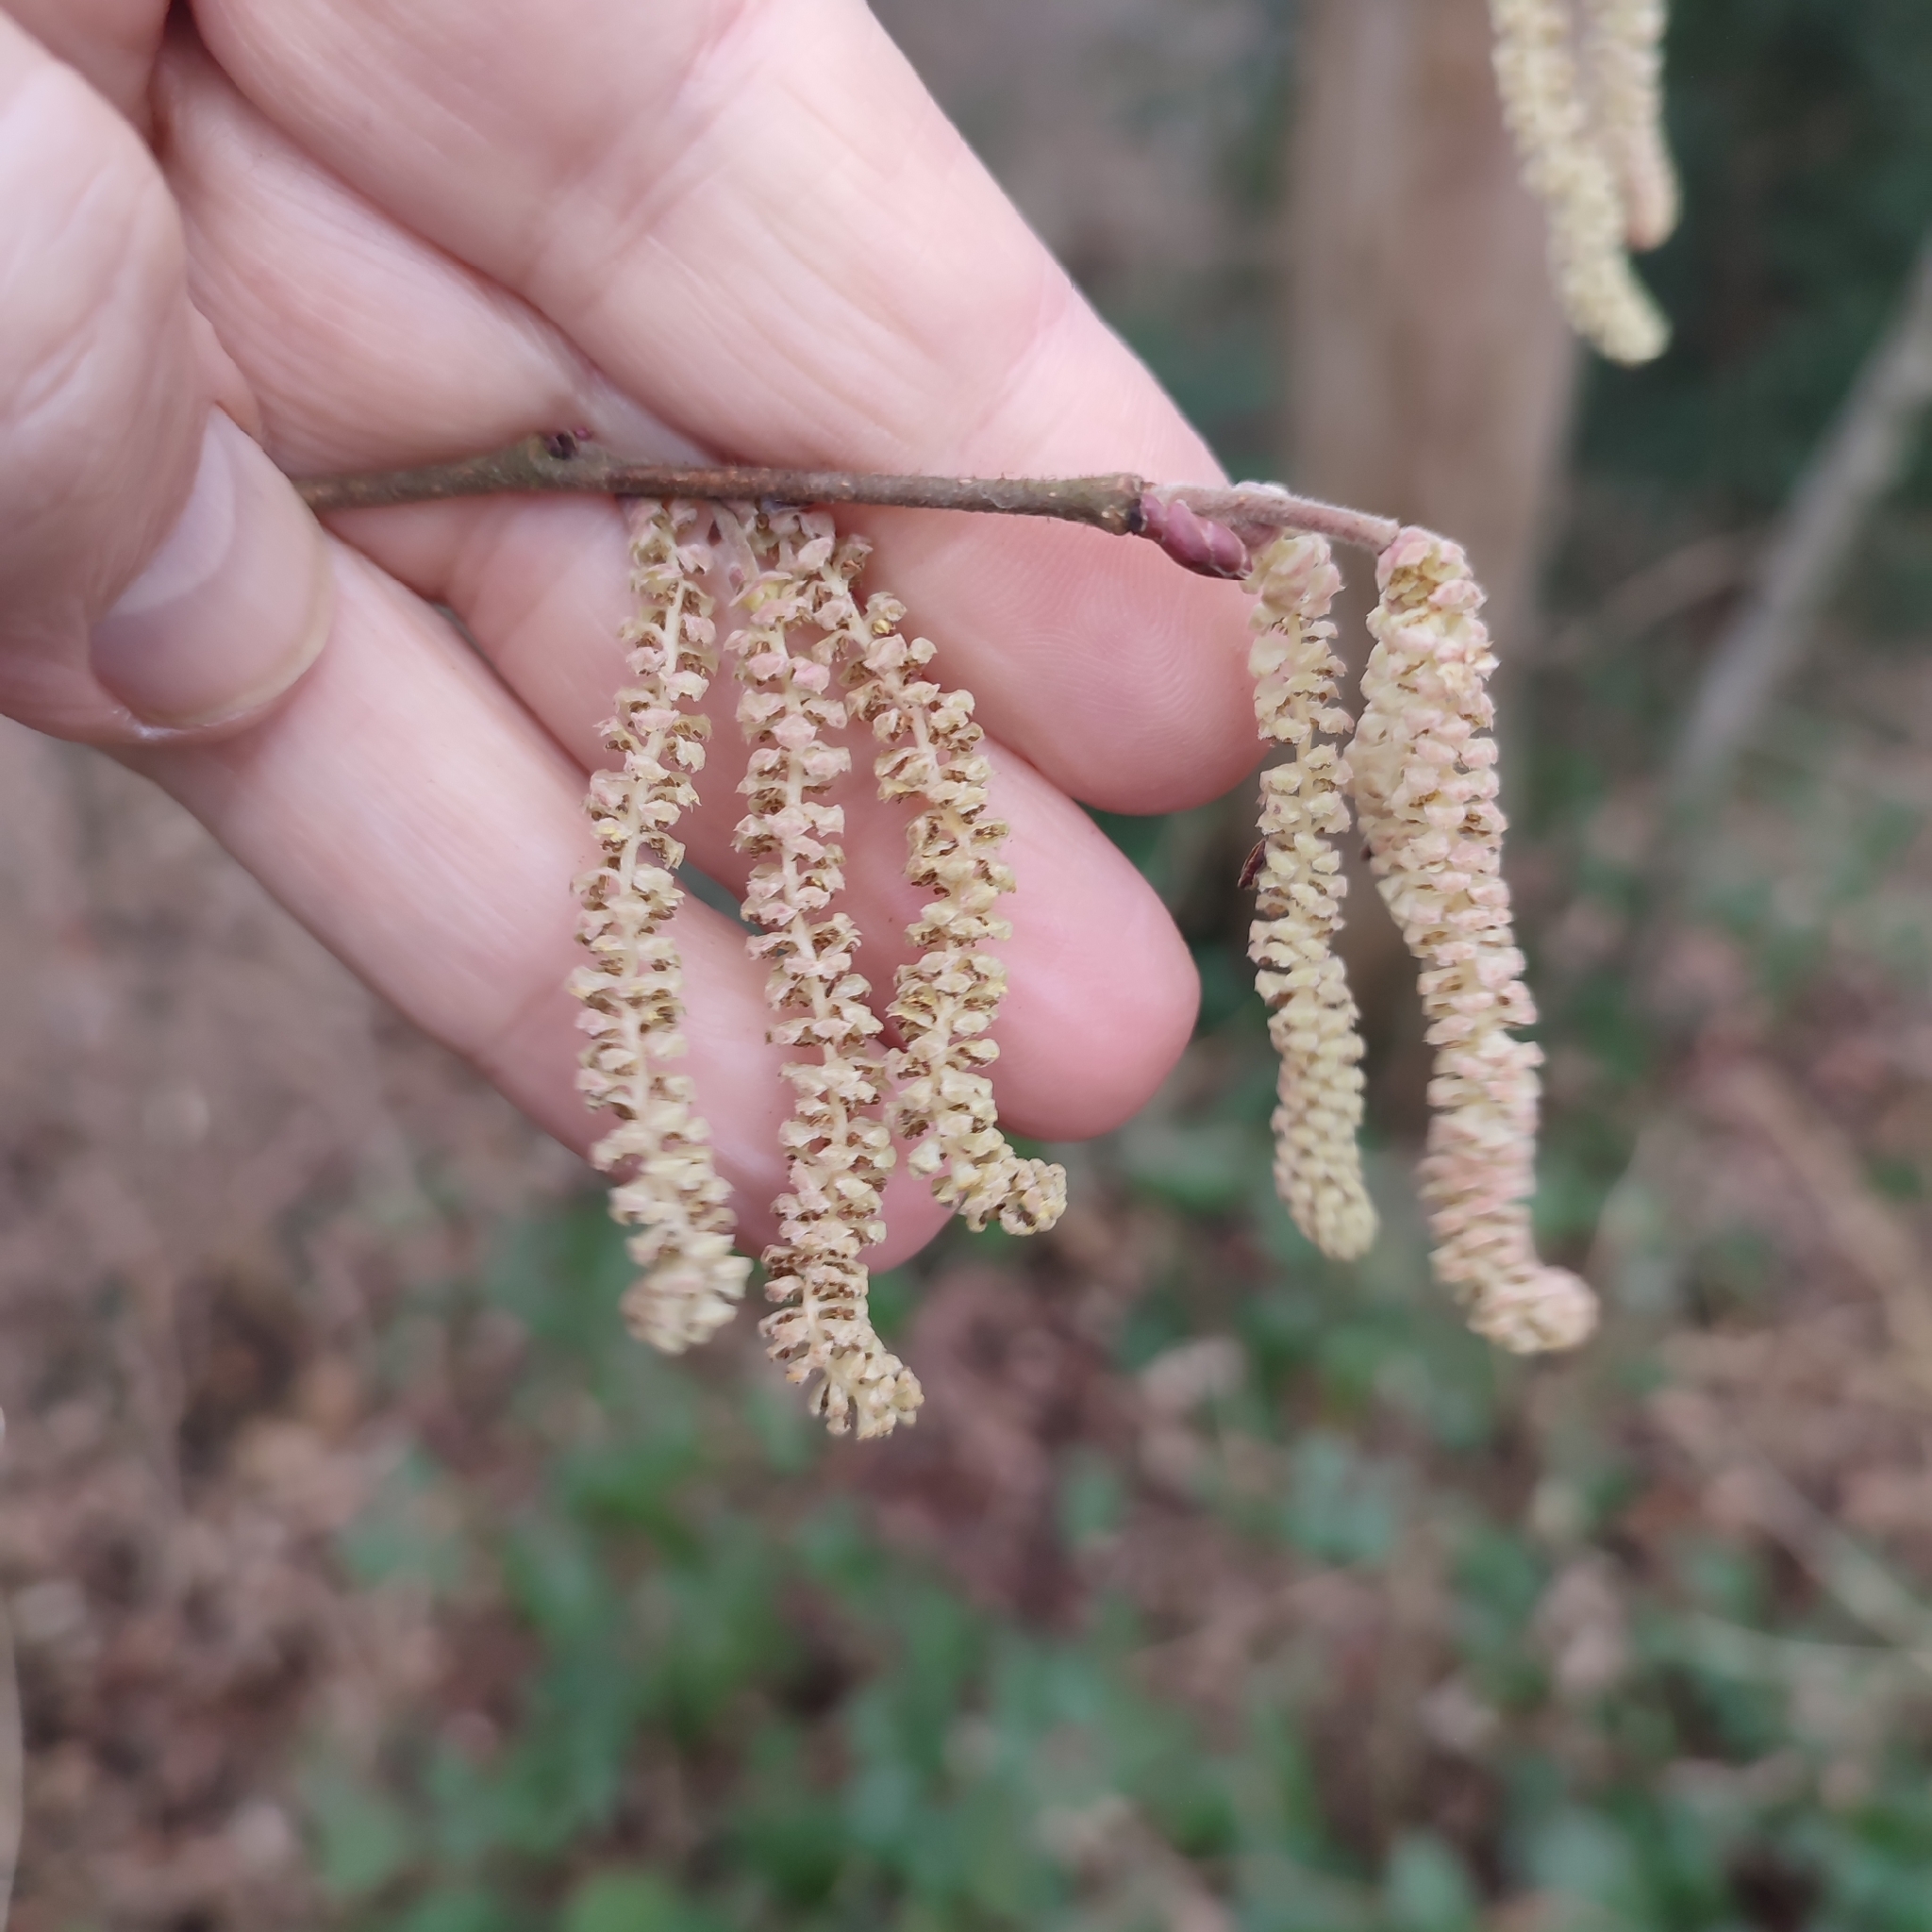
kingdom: Plantae
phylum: Tracheophyta
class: Magnoliopsida
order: Fagales
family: Betulaceae
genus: Corylus
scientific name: Corylus avellana
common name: European hazel
